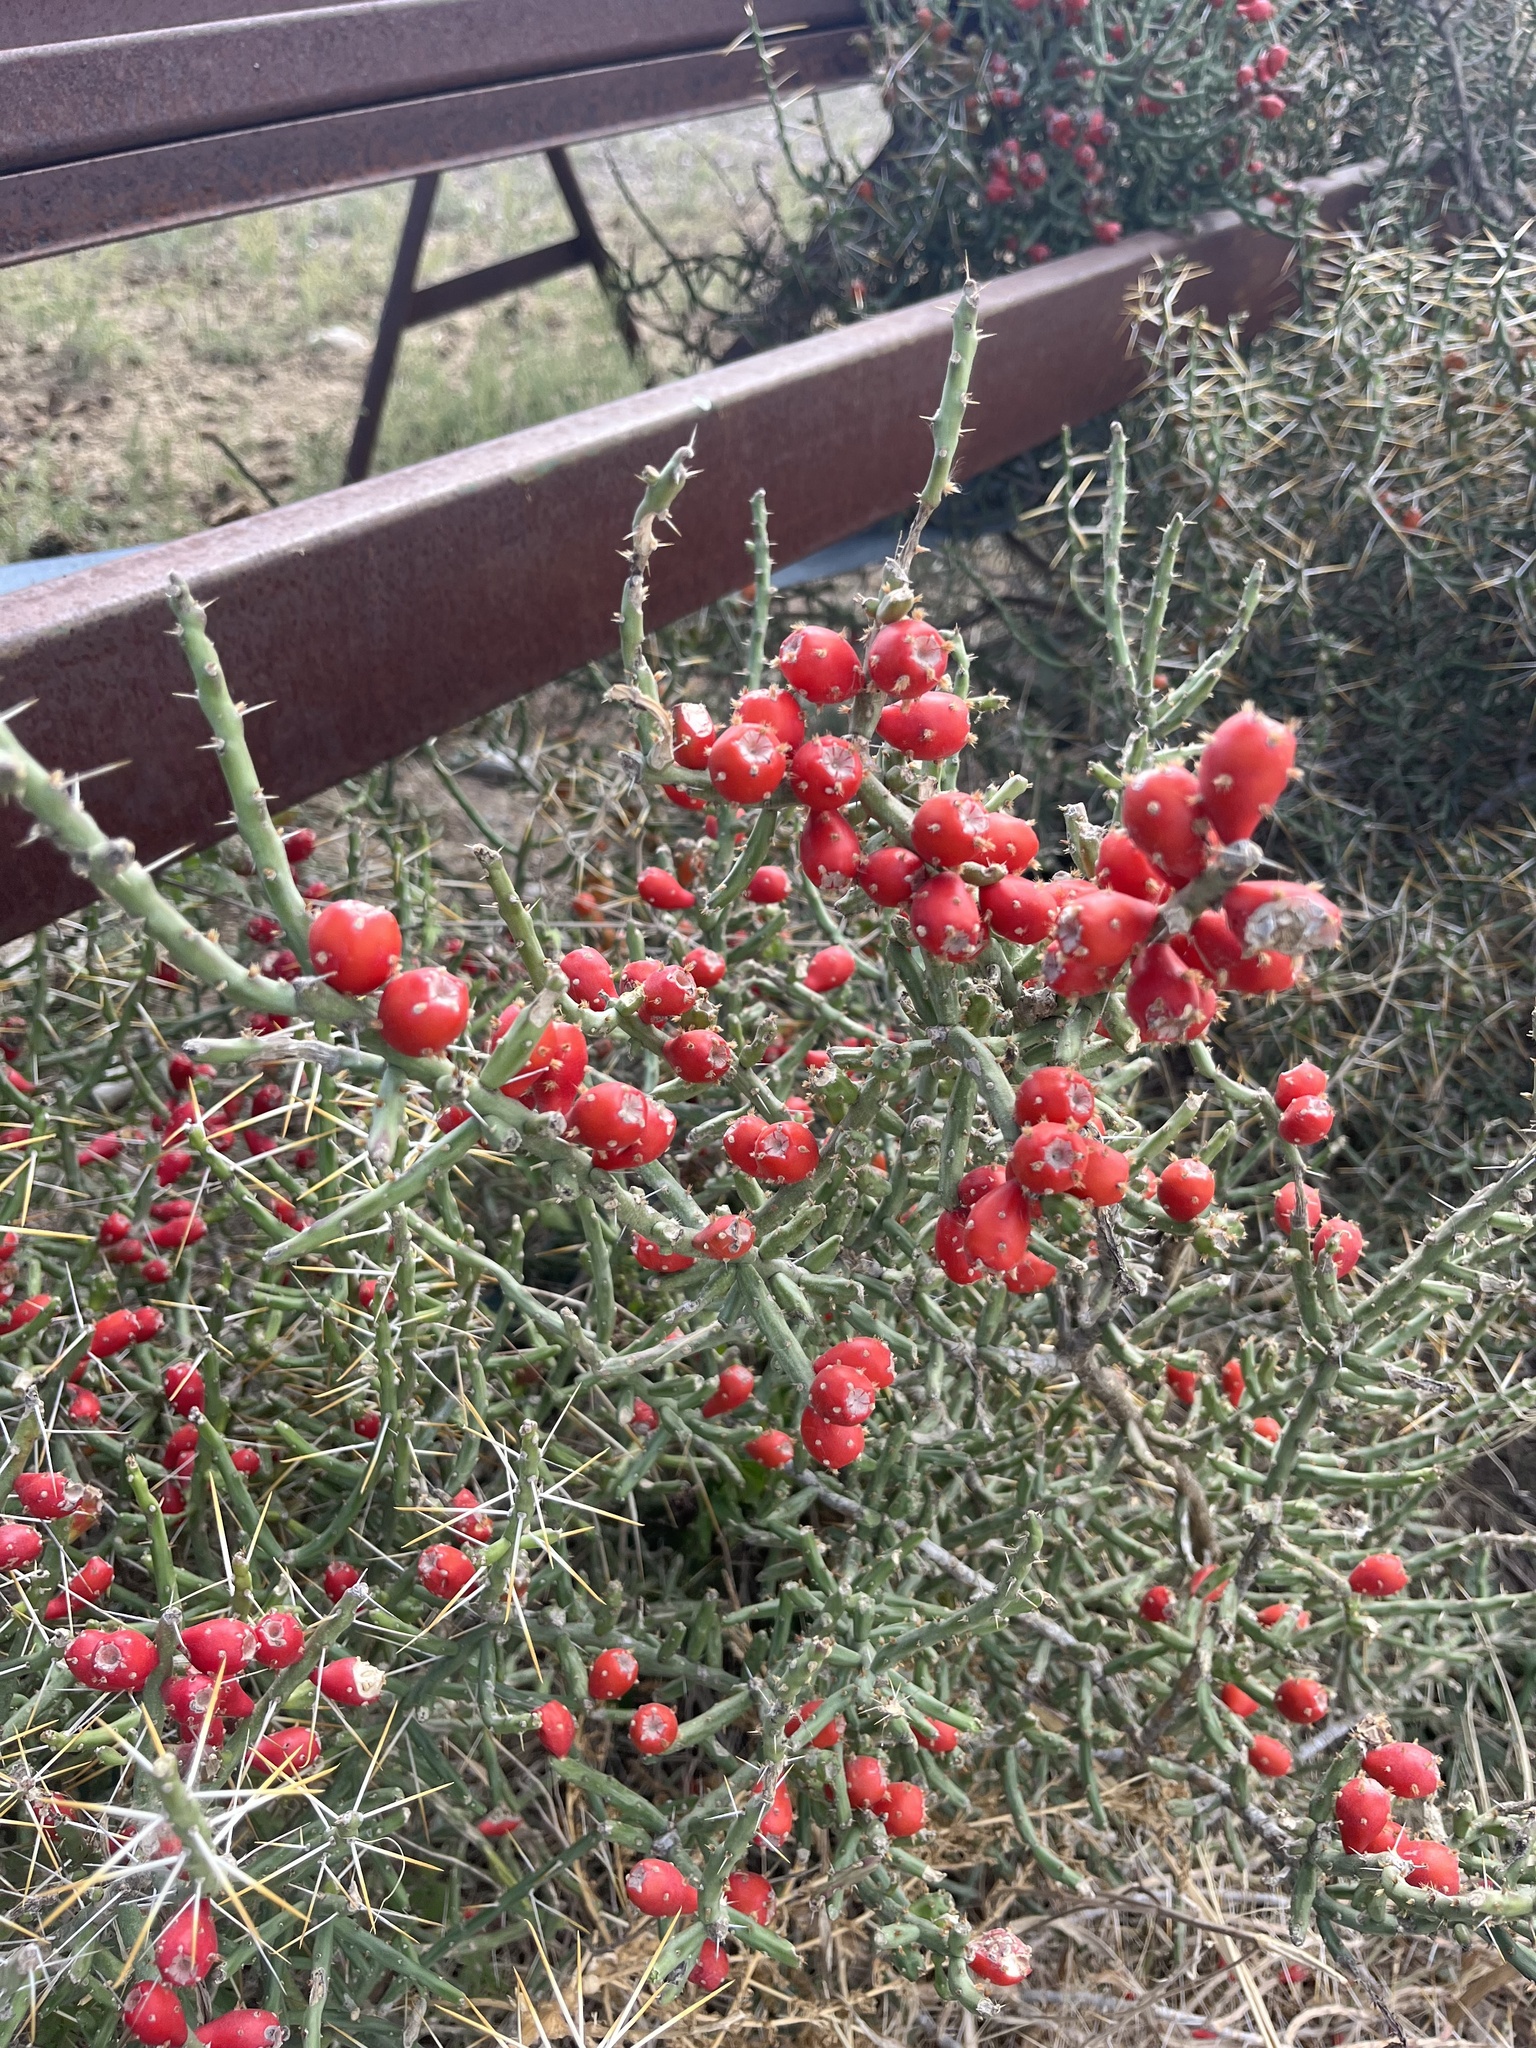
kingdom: Plantae
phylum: Tracheophyta
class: Magnoliopsida
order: Caryophyllales
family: Cactaceae
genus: Cylindropuntia
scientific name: Cylindropuntia leptocaulis
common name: Christmas cactus
